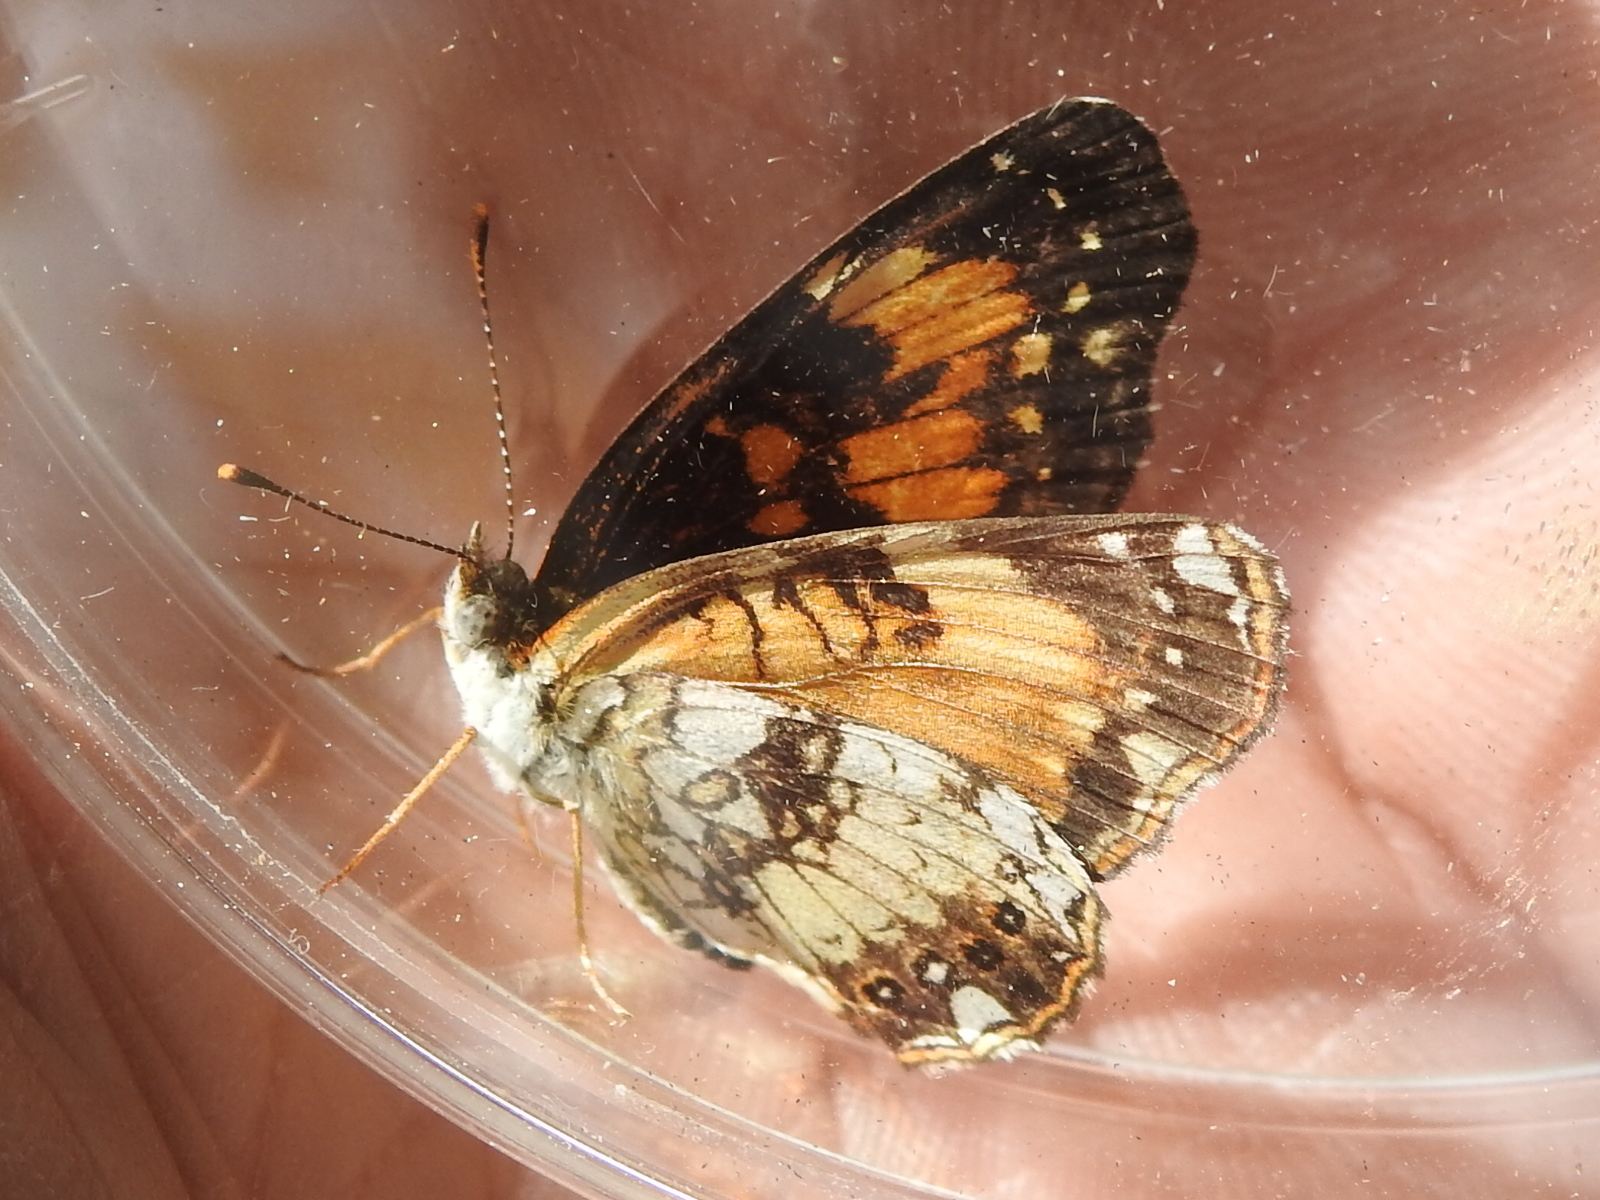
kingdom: Animalia
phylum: Arthropoda
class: Insecta
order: Lepidoptera
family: Nymphalidae
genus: Chlosyne
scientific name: Chlosyne nycteis
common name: Silvery checkerspot
